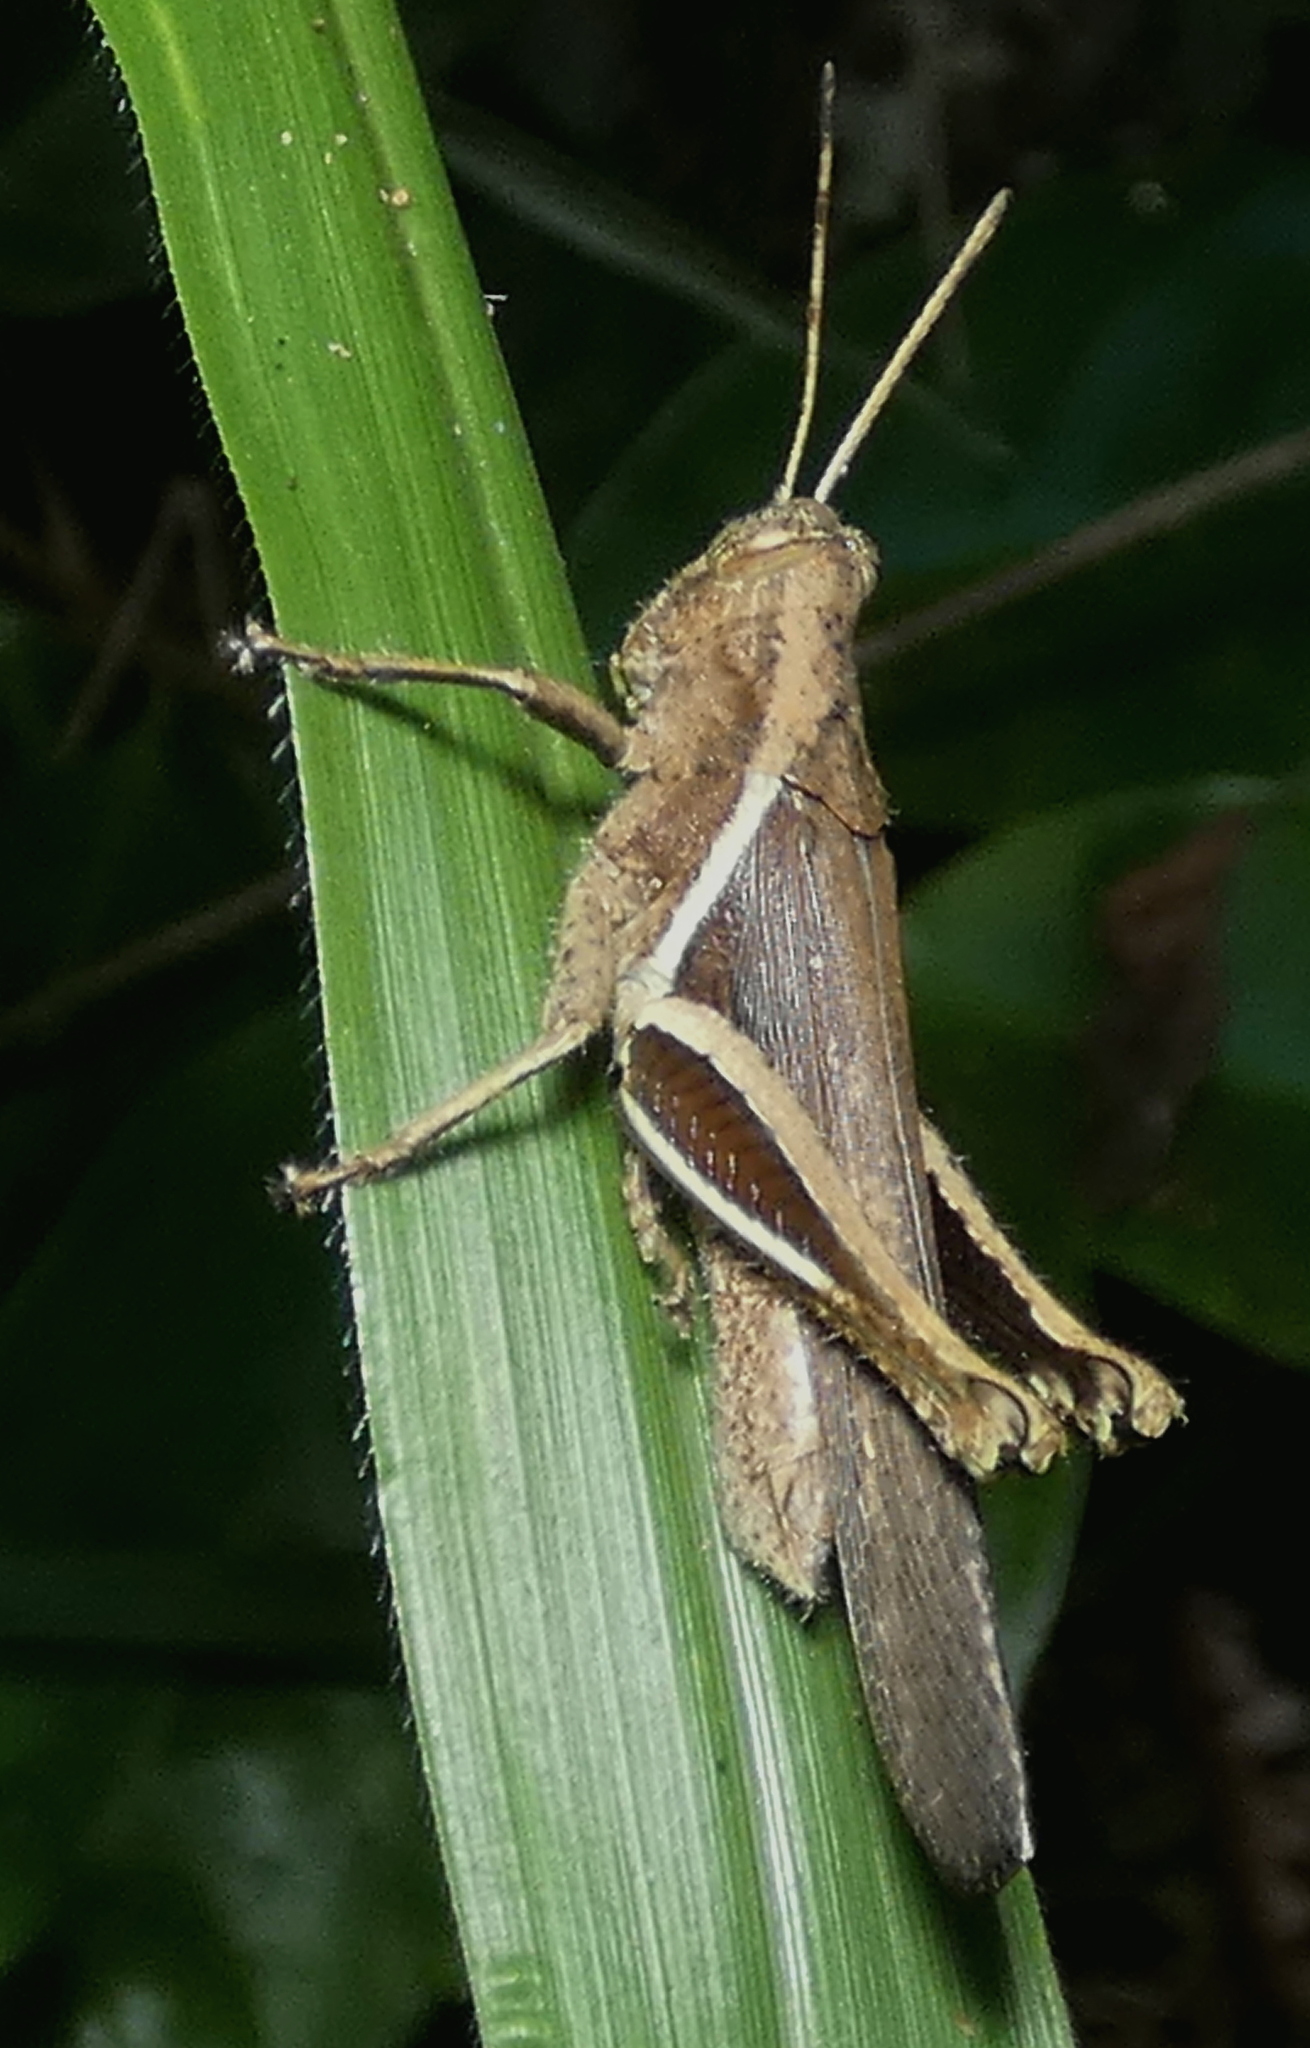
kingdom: Animalia
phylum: Arthropoda
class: Insecta
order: Orthoptera
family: Acrididae
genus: Abracris
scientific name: Abracris flavolineata
